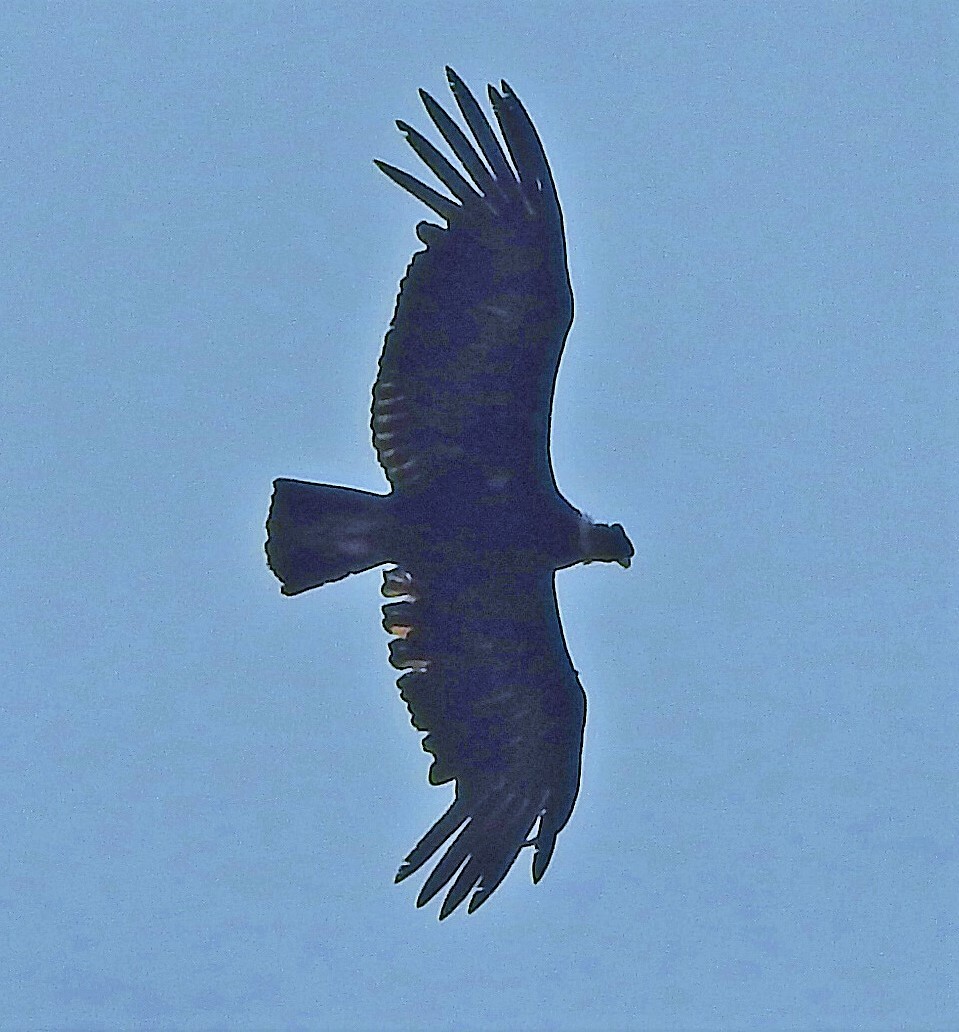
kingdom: Animalia
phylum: Chordata
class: Aves
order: Accipitriformes
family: Cathartidae
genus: Vultur
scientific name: Vultur gryphus
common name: Andean condor
